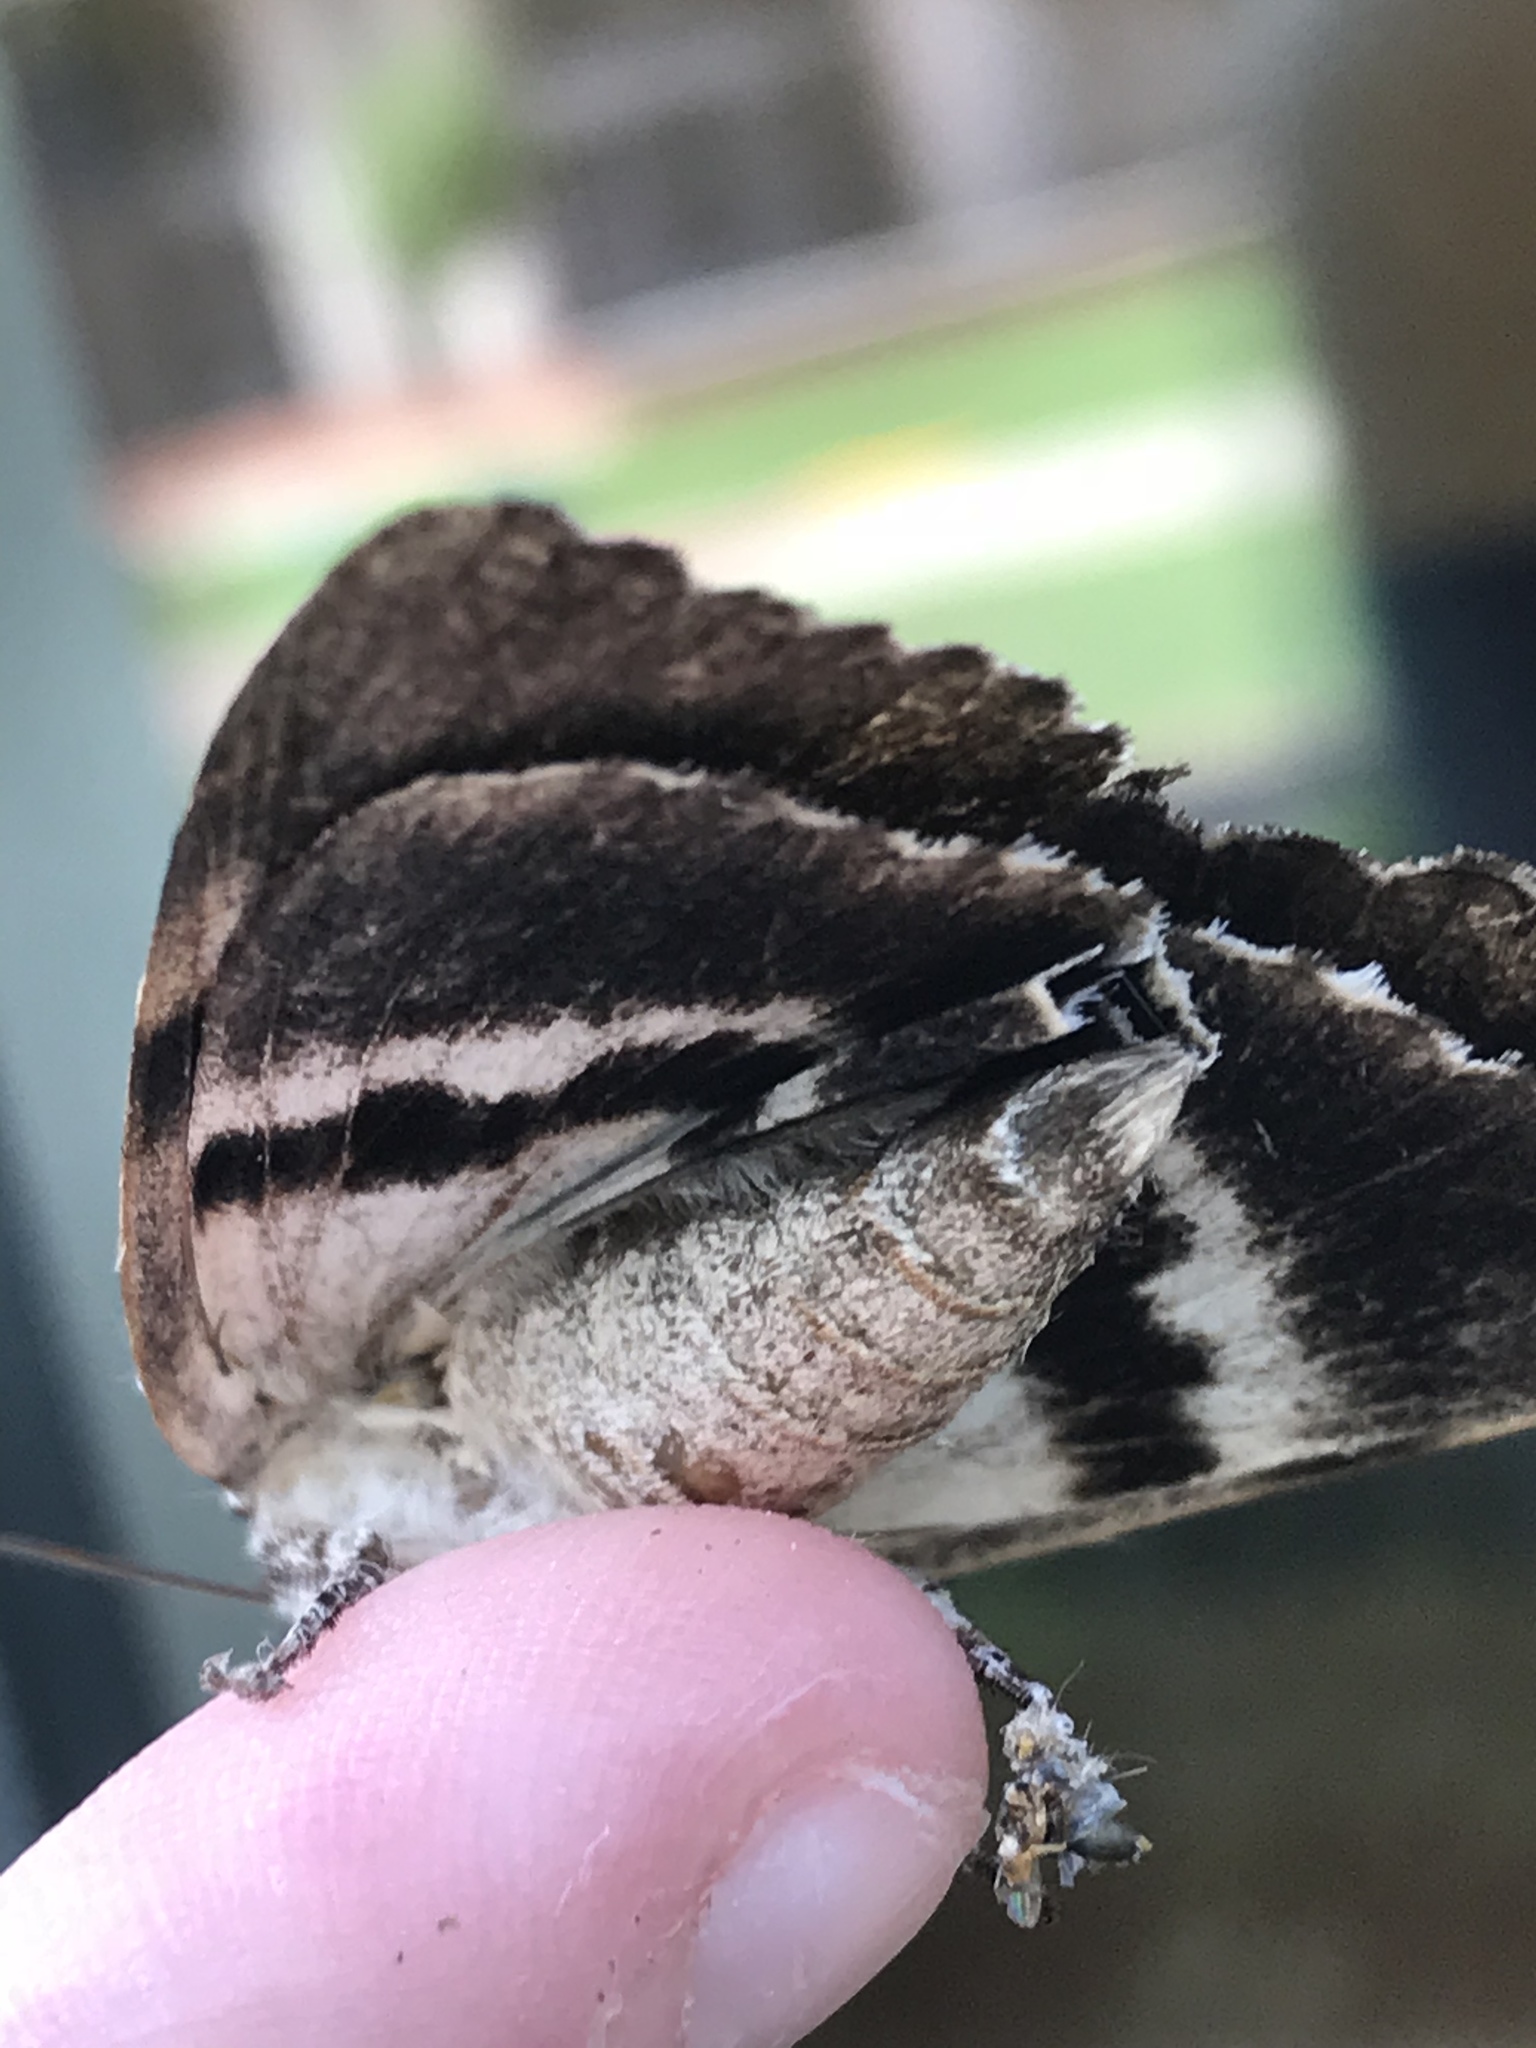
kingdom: Animalia
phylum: Arthropoda
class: Insecta
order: Lepidoptera
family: Erebidae
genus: Catocala
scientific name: Catocala lacrymosa
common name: Tearful underwing
